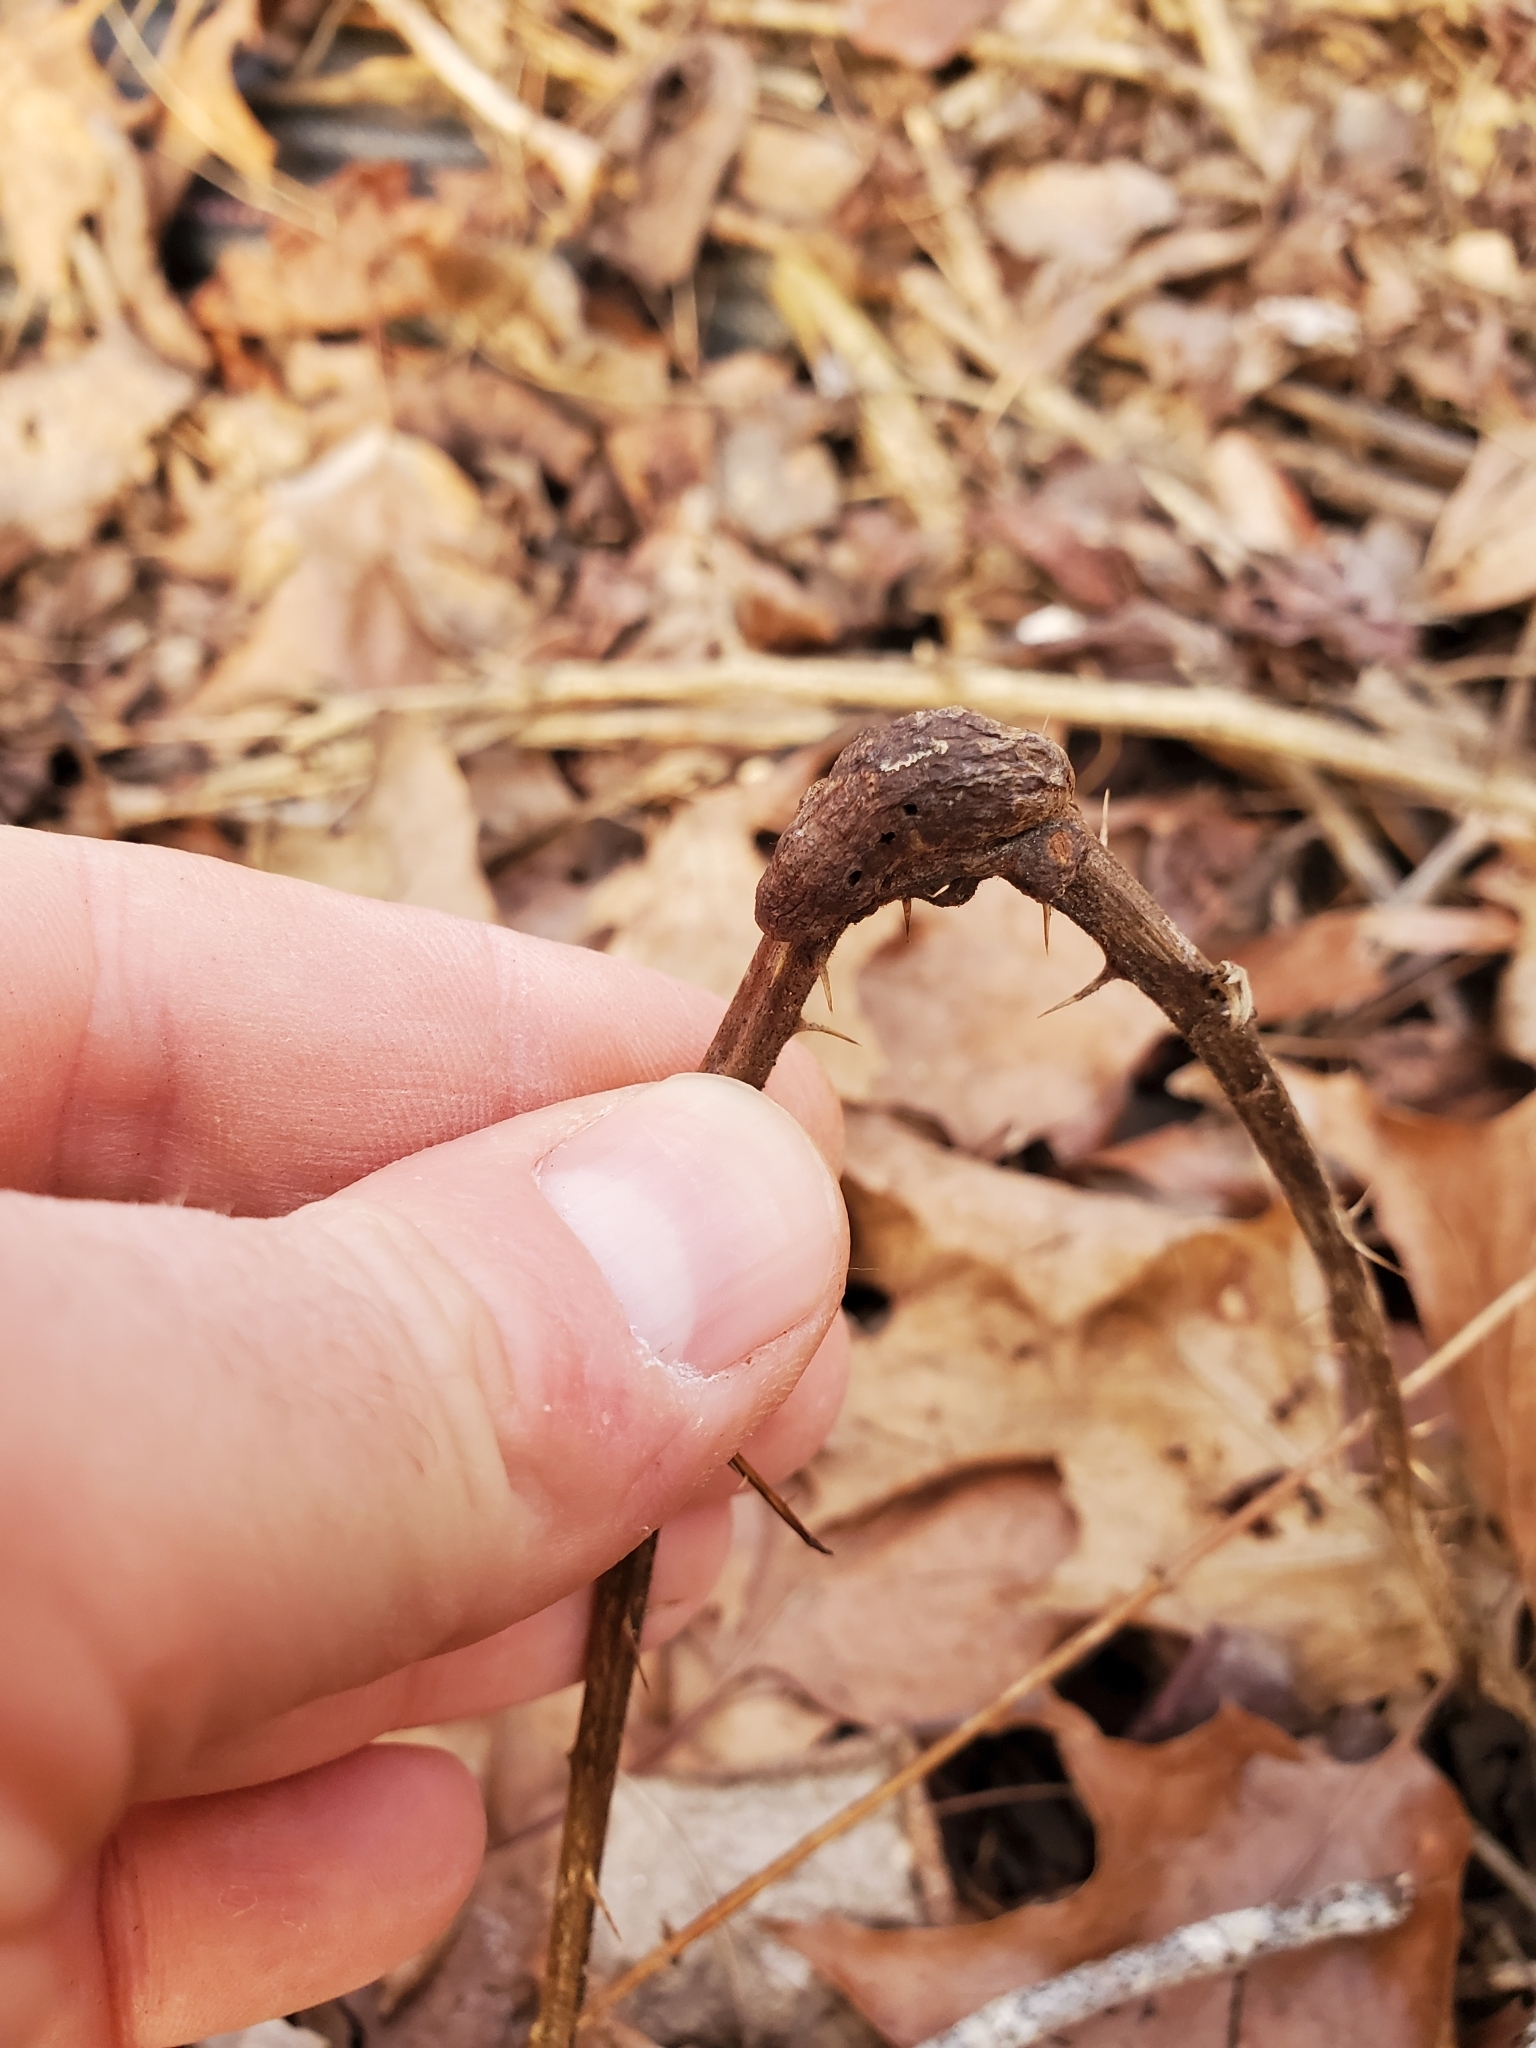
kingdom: Animalia
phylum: Arthropoda
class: Insecta
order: Hymenoptera
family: Cynipidae
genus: Diastrophus
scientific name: Diastrophus
